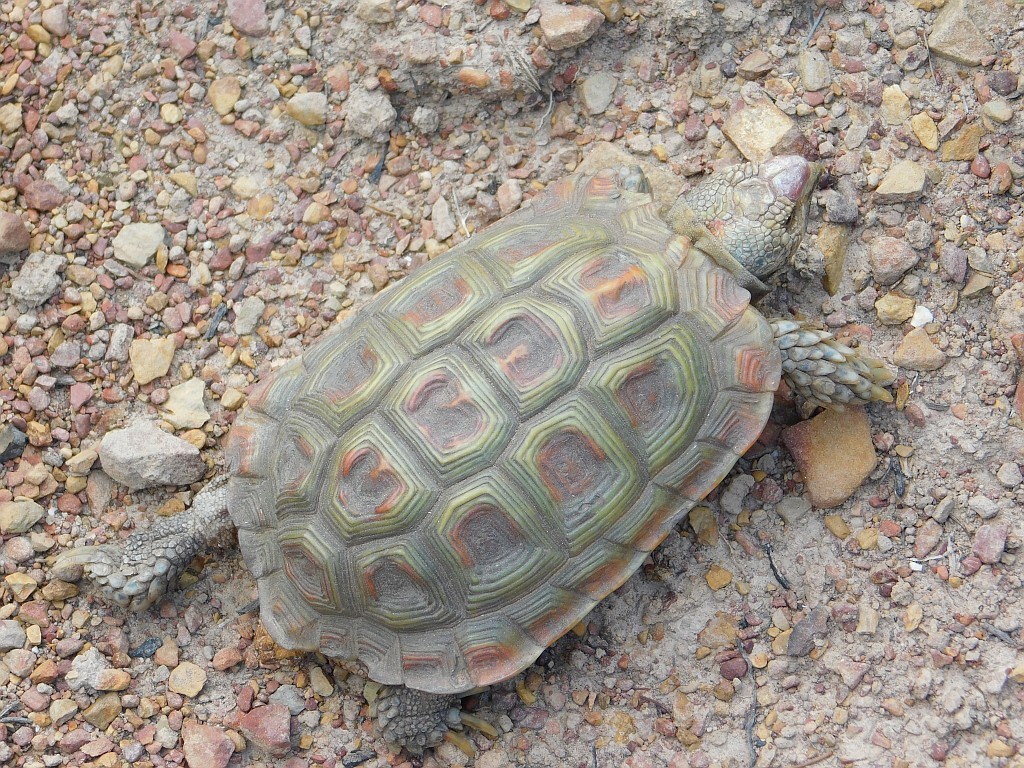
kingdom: Animalia
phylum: Chordata
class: Testudines
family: Testudinidae
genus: Homopus
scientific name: Homopus areolatus
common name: Parrot-beaked tortoise
